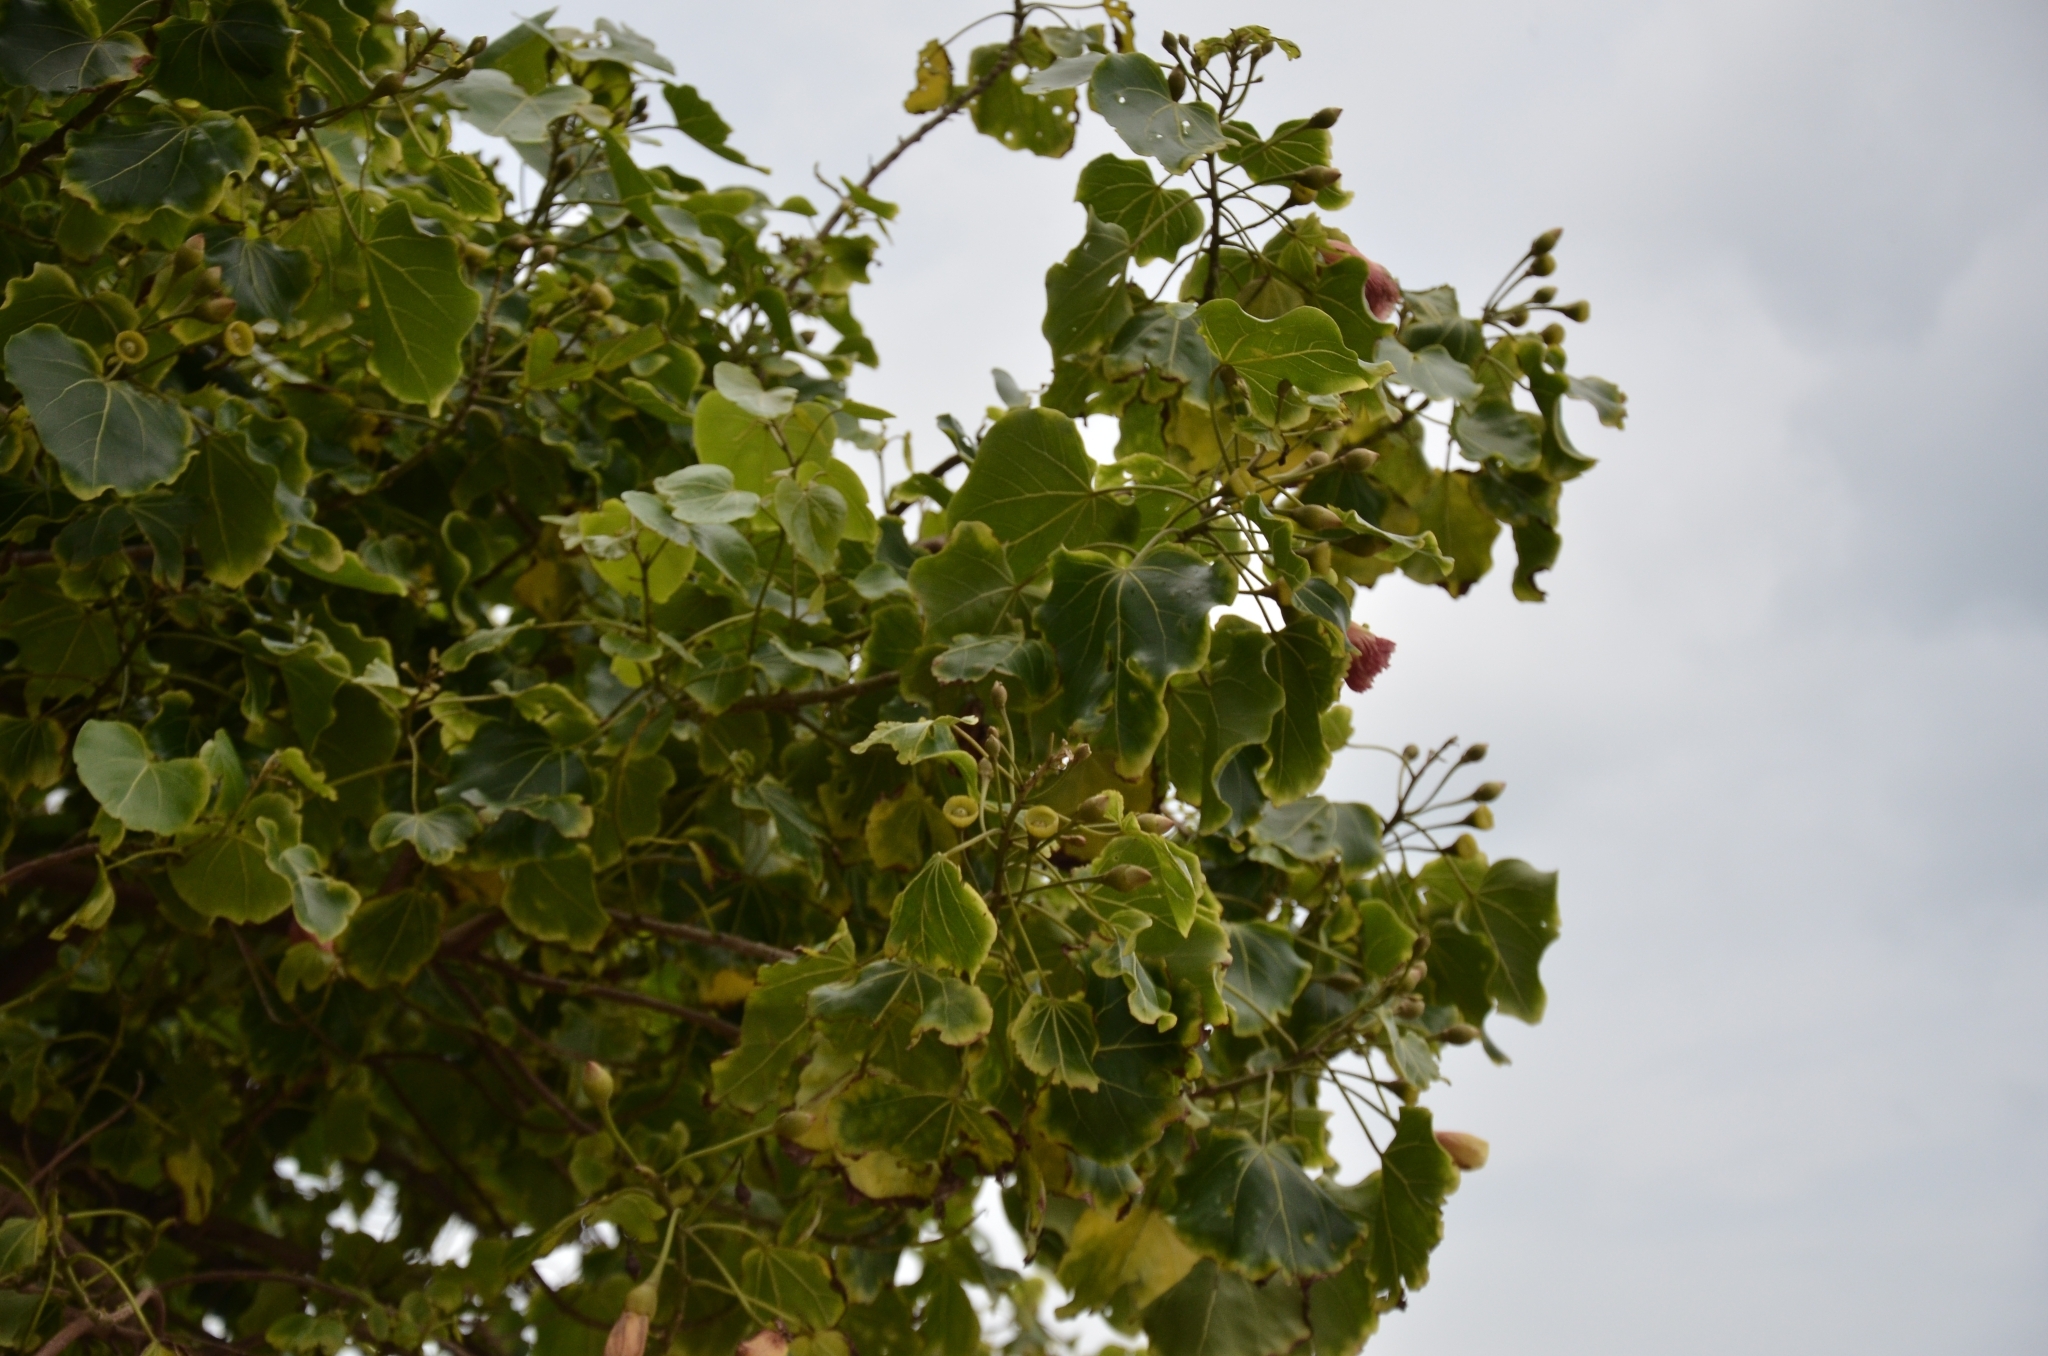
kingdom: Plantae
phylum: Tracheophyta
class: Magnoliopsida
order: Malvales
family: Malvaceae
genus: Thespesia
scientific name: Thespesia populnea
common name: Seaside mahoe
